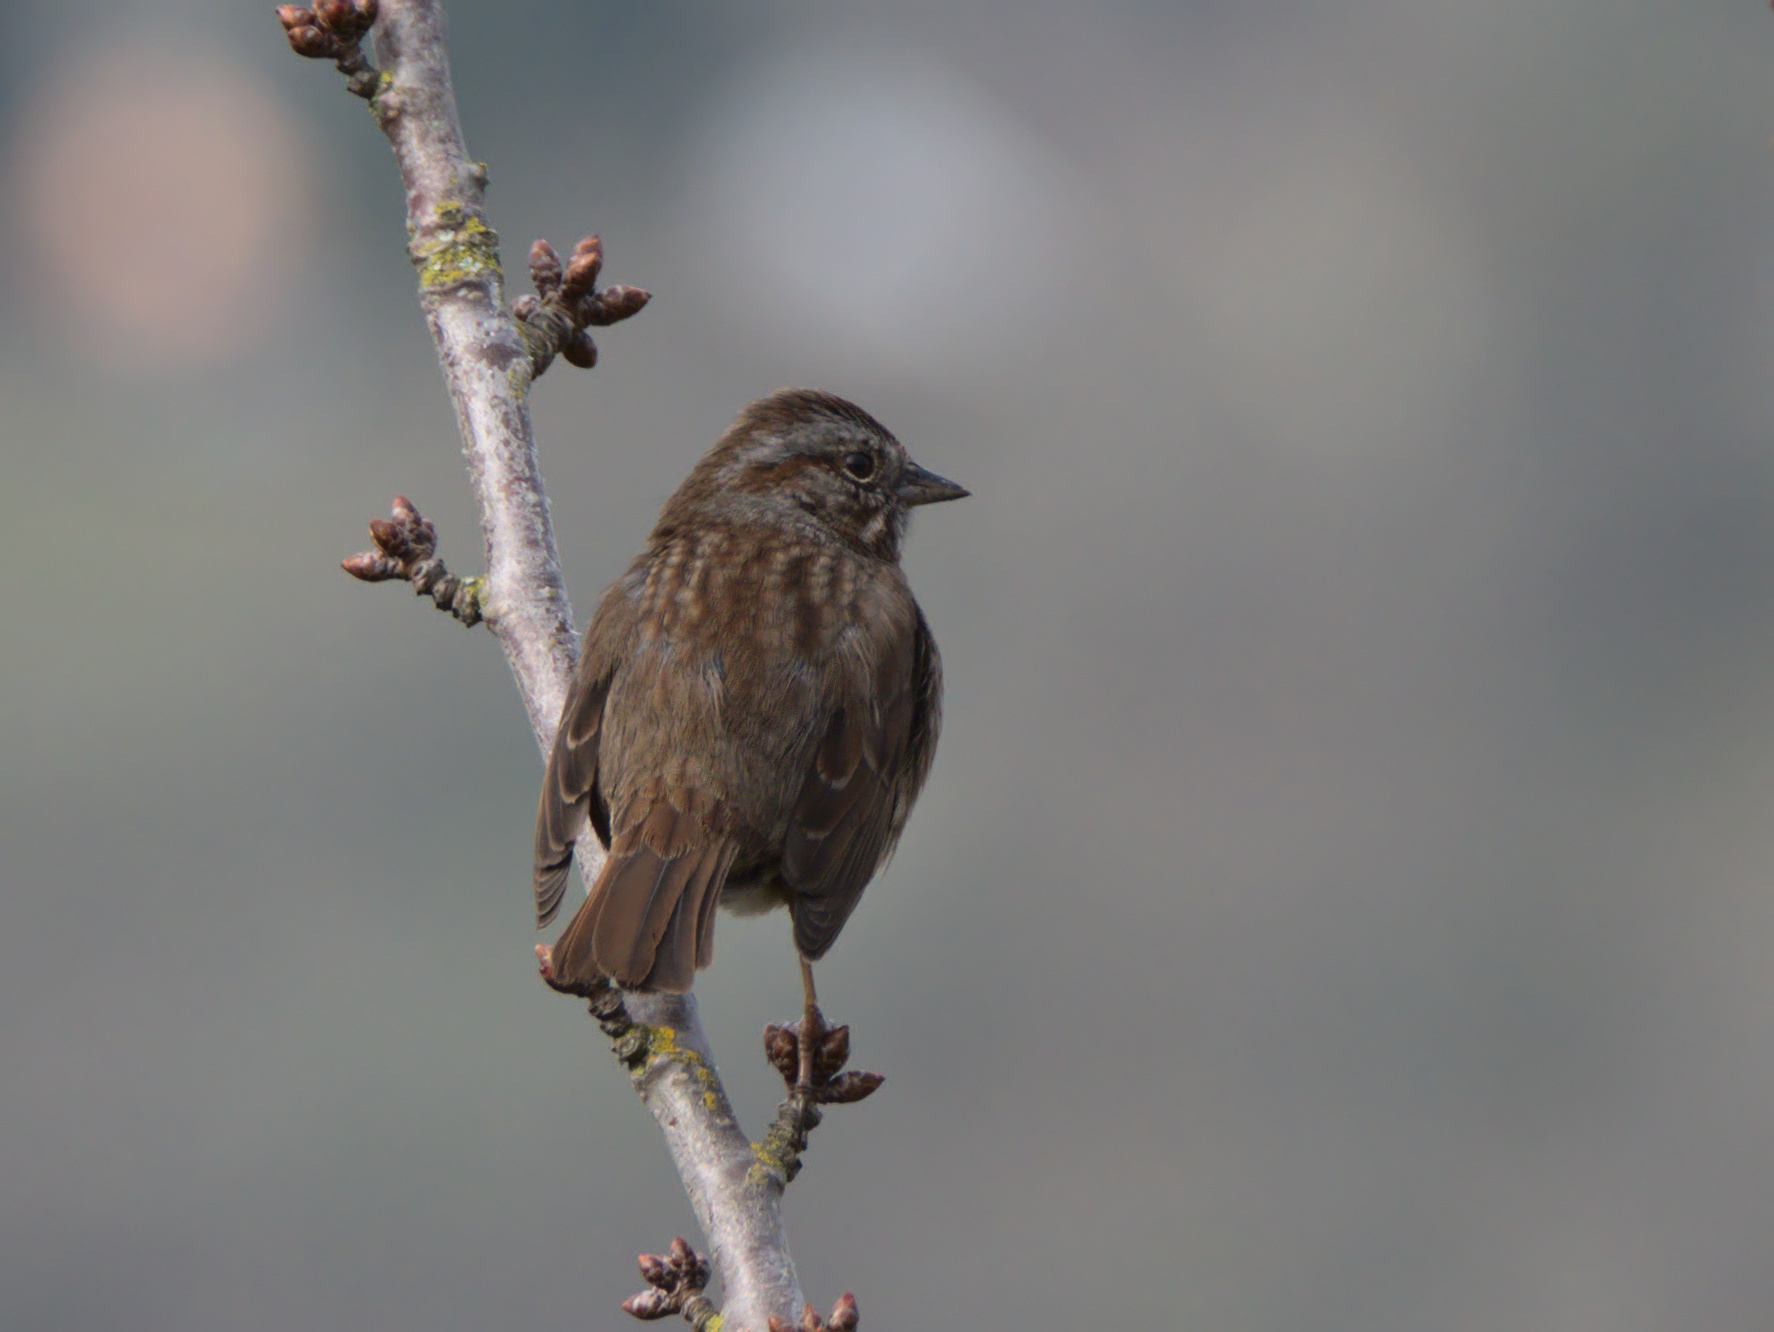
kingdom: Animalia
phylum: Chordata
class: Aves
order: Passeriformes
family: Passerellidae
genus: Melospiza
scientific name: Melospiza melodia
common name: Song sparrow
